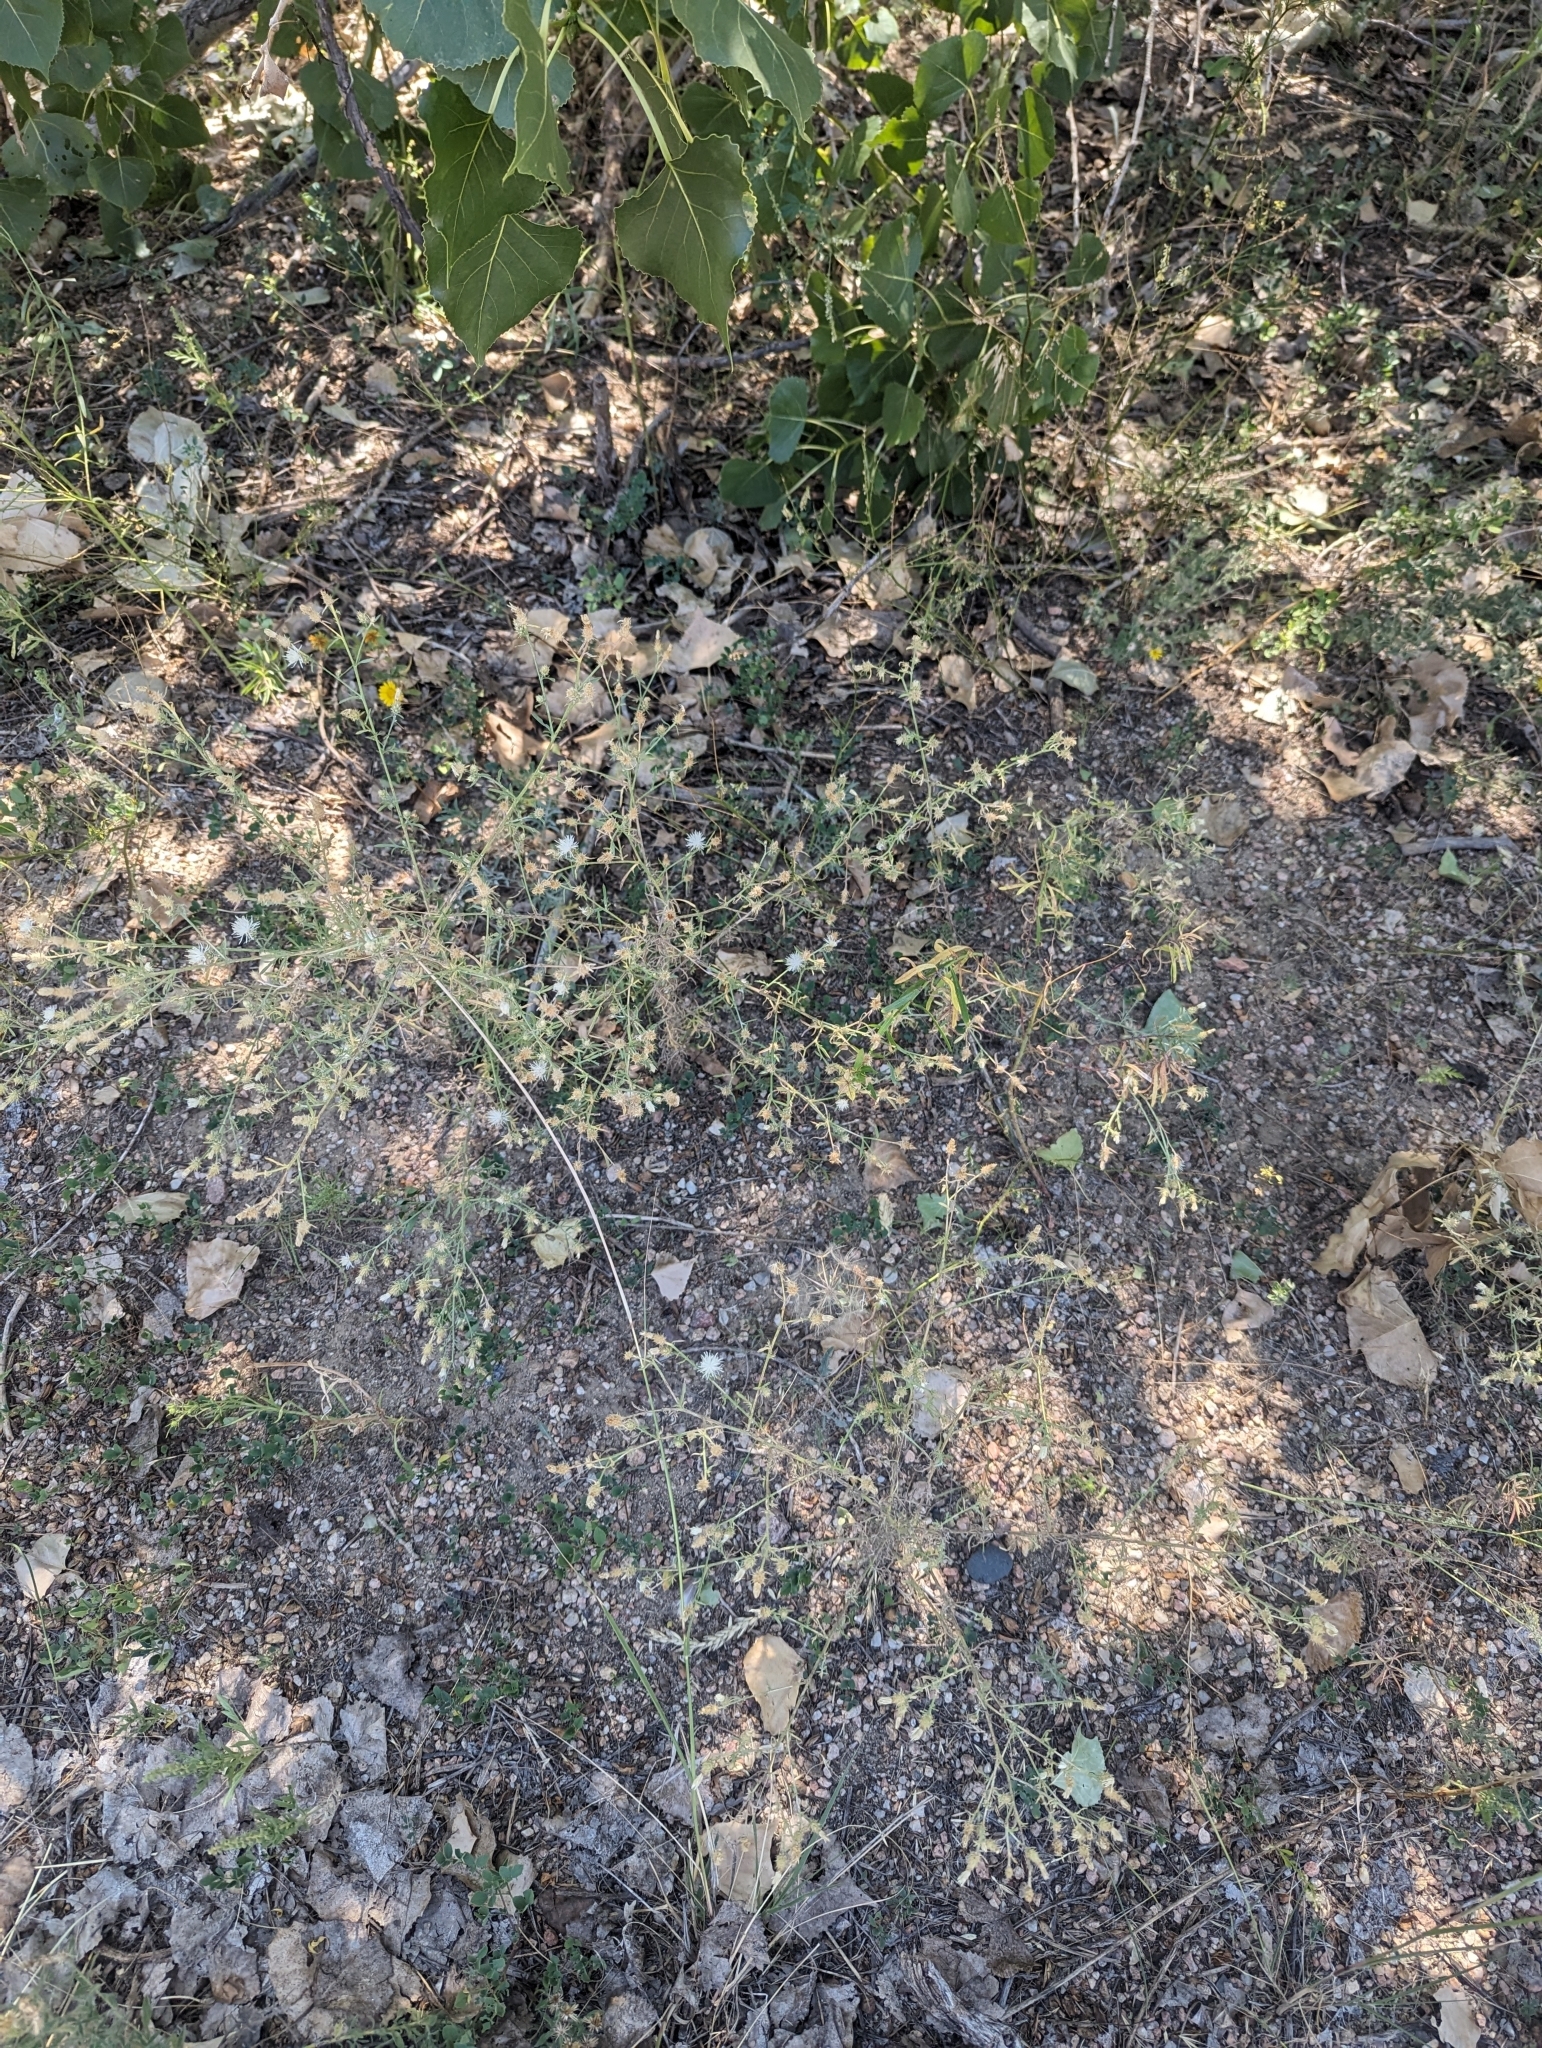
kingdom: Plantae
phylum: Tracheophyta
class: Magnoliopsida
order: Asterales
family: Asteraceae
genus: Centaurea
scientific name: Centaurea diffusa
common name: Diffuse knapweed
